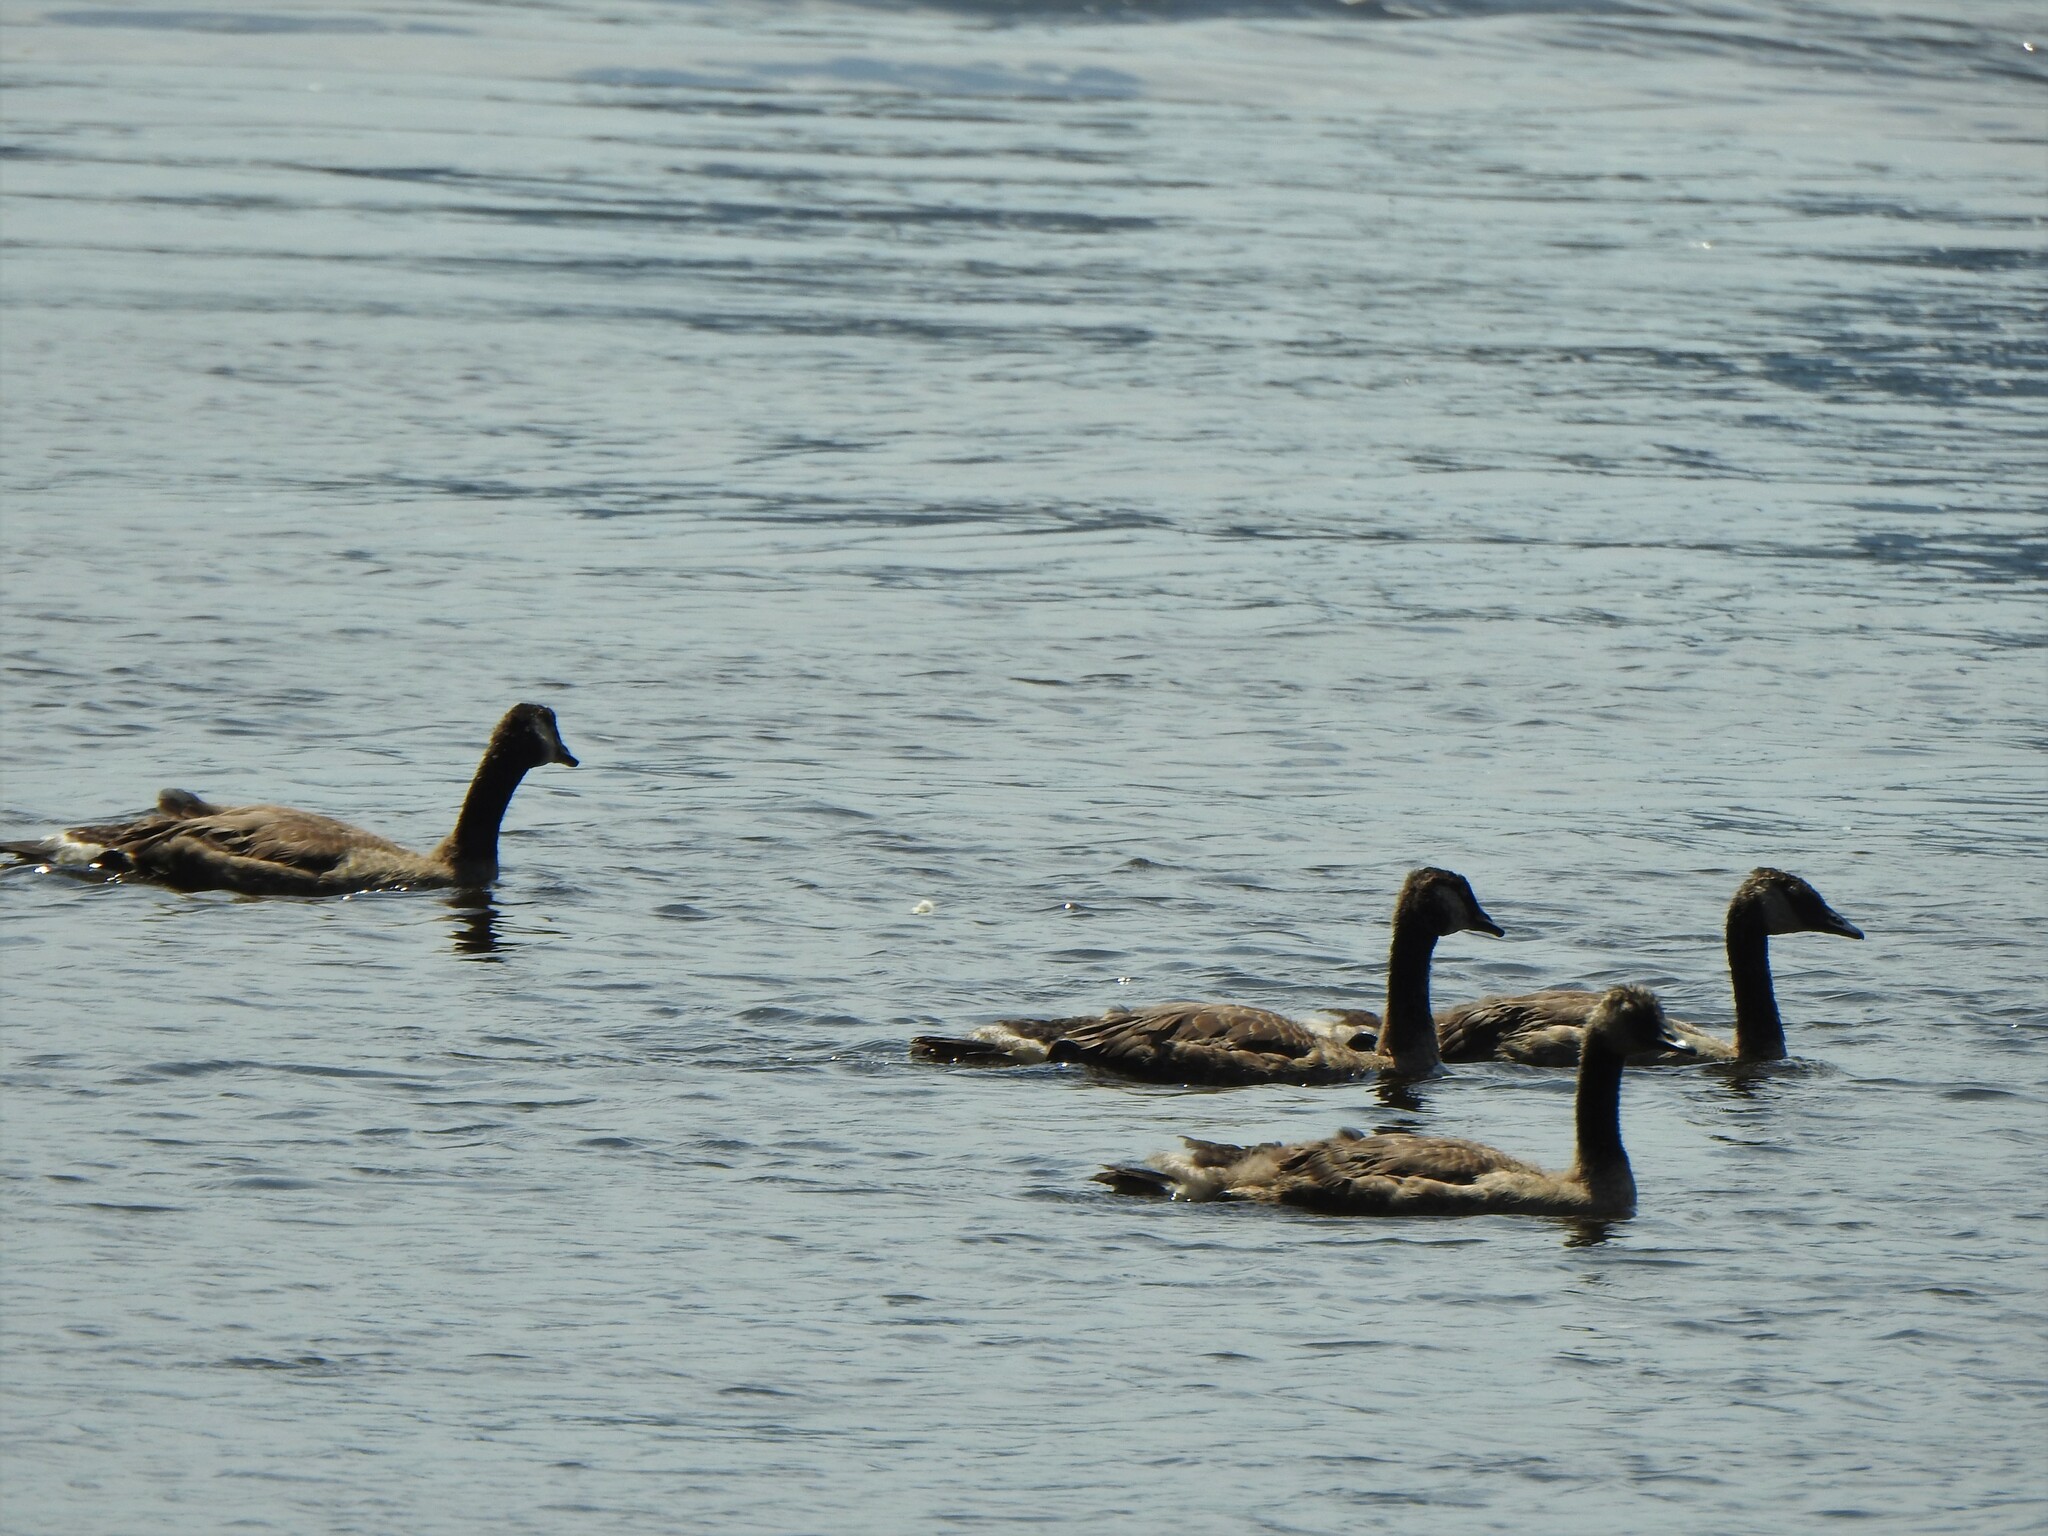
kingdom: Animalia
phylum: Chordata
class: Aves
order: Anseriformes
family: Anatidae
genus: Branta
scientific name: Branta canadensis
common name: Canada goose
